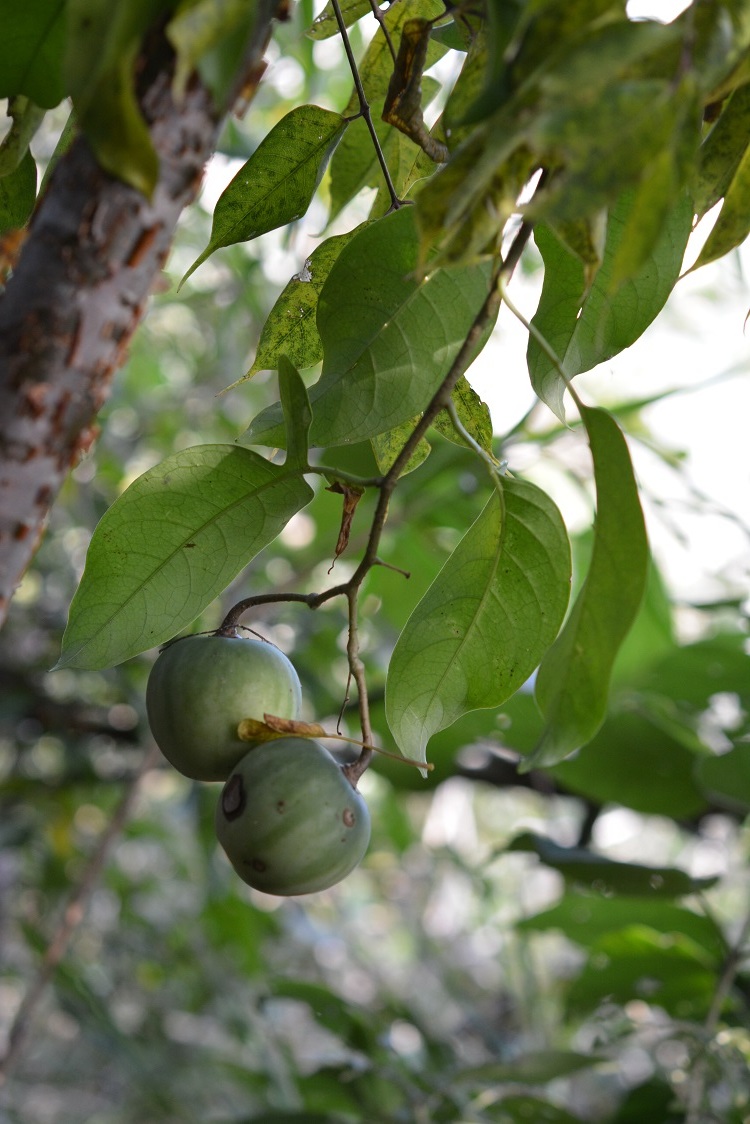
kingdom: Plantae
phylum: Tracheophyta
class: Magnoliopsida
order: Solanales
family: Solanaceae
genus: Solanum
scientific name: Solanum aturense
